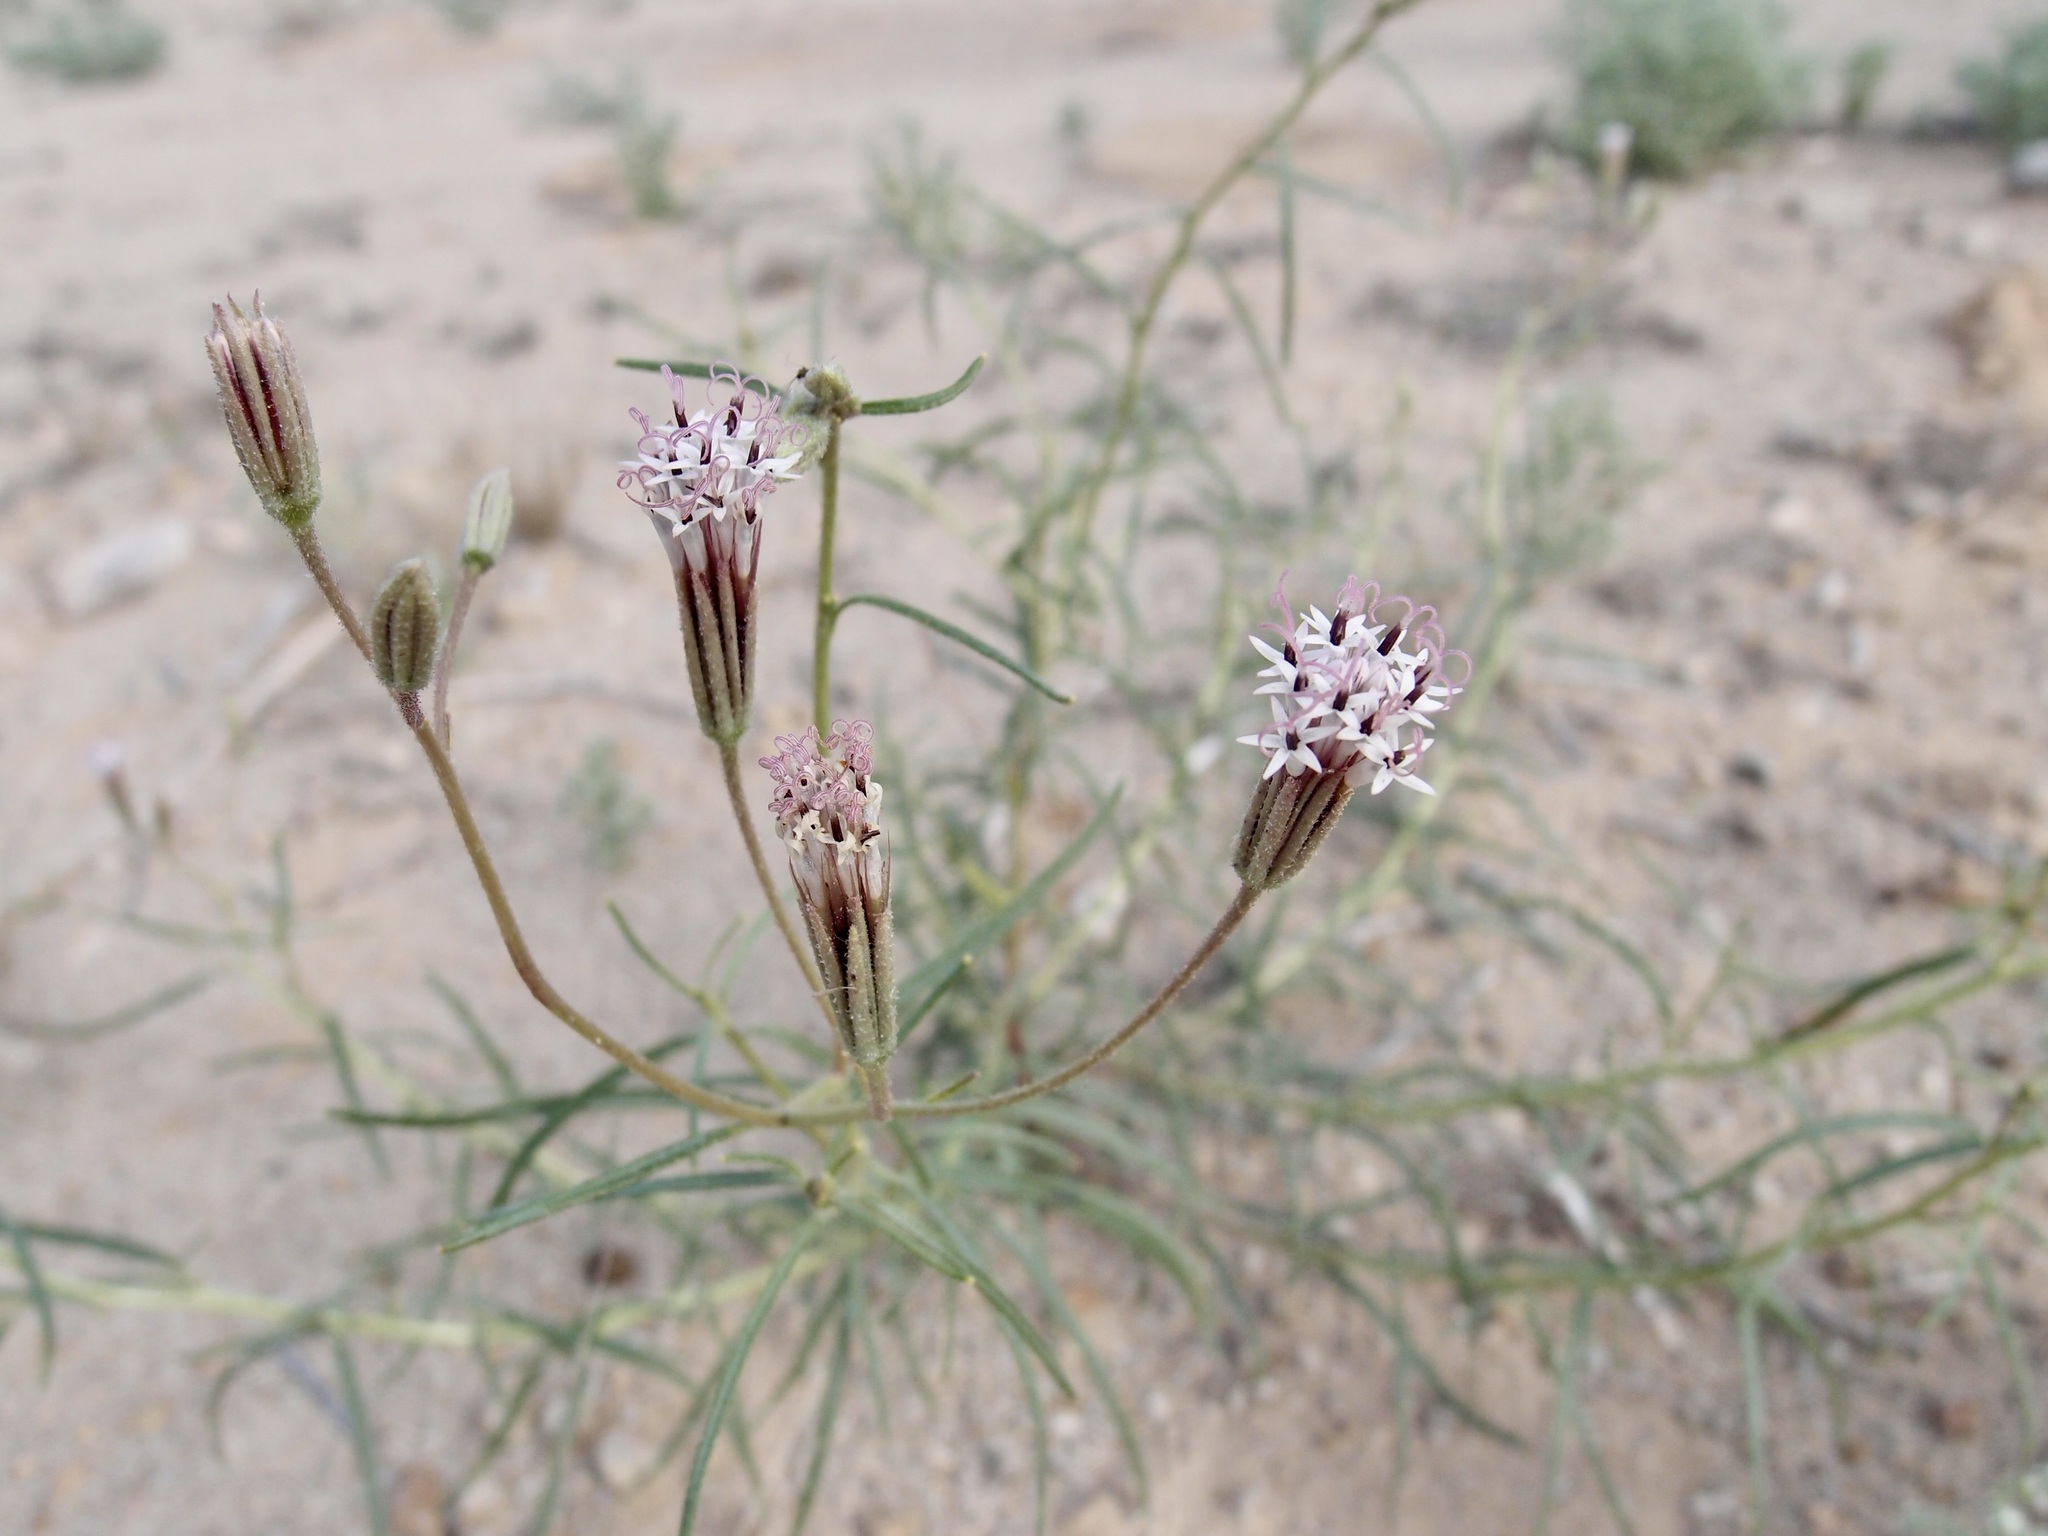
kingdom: Plantae
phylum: Tracheophyta
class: Magnoliopsida
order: Asterales
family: Asteraceae
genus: Palafoxia
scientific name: Palafoxia arida
